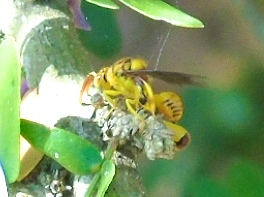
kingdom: Animalia
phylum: Arthropoda
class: Insecta
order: Hymenoptera
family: Chalcididae
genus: Conura
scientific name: Conura
